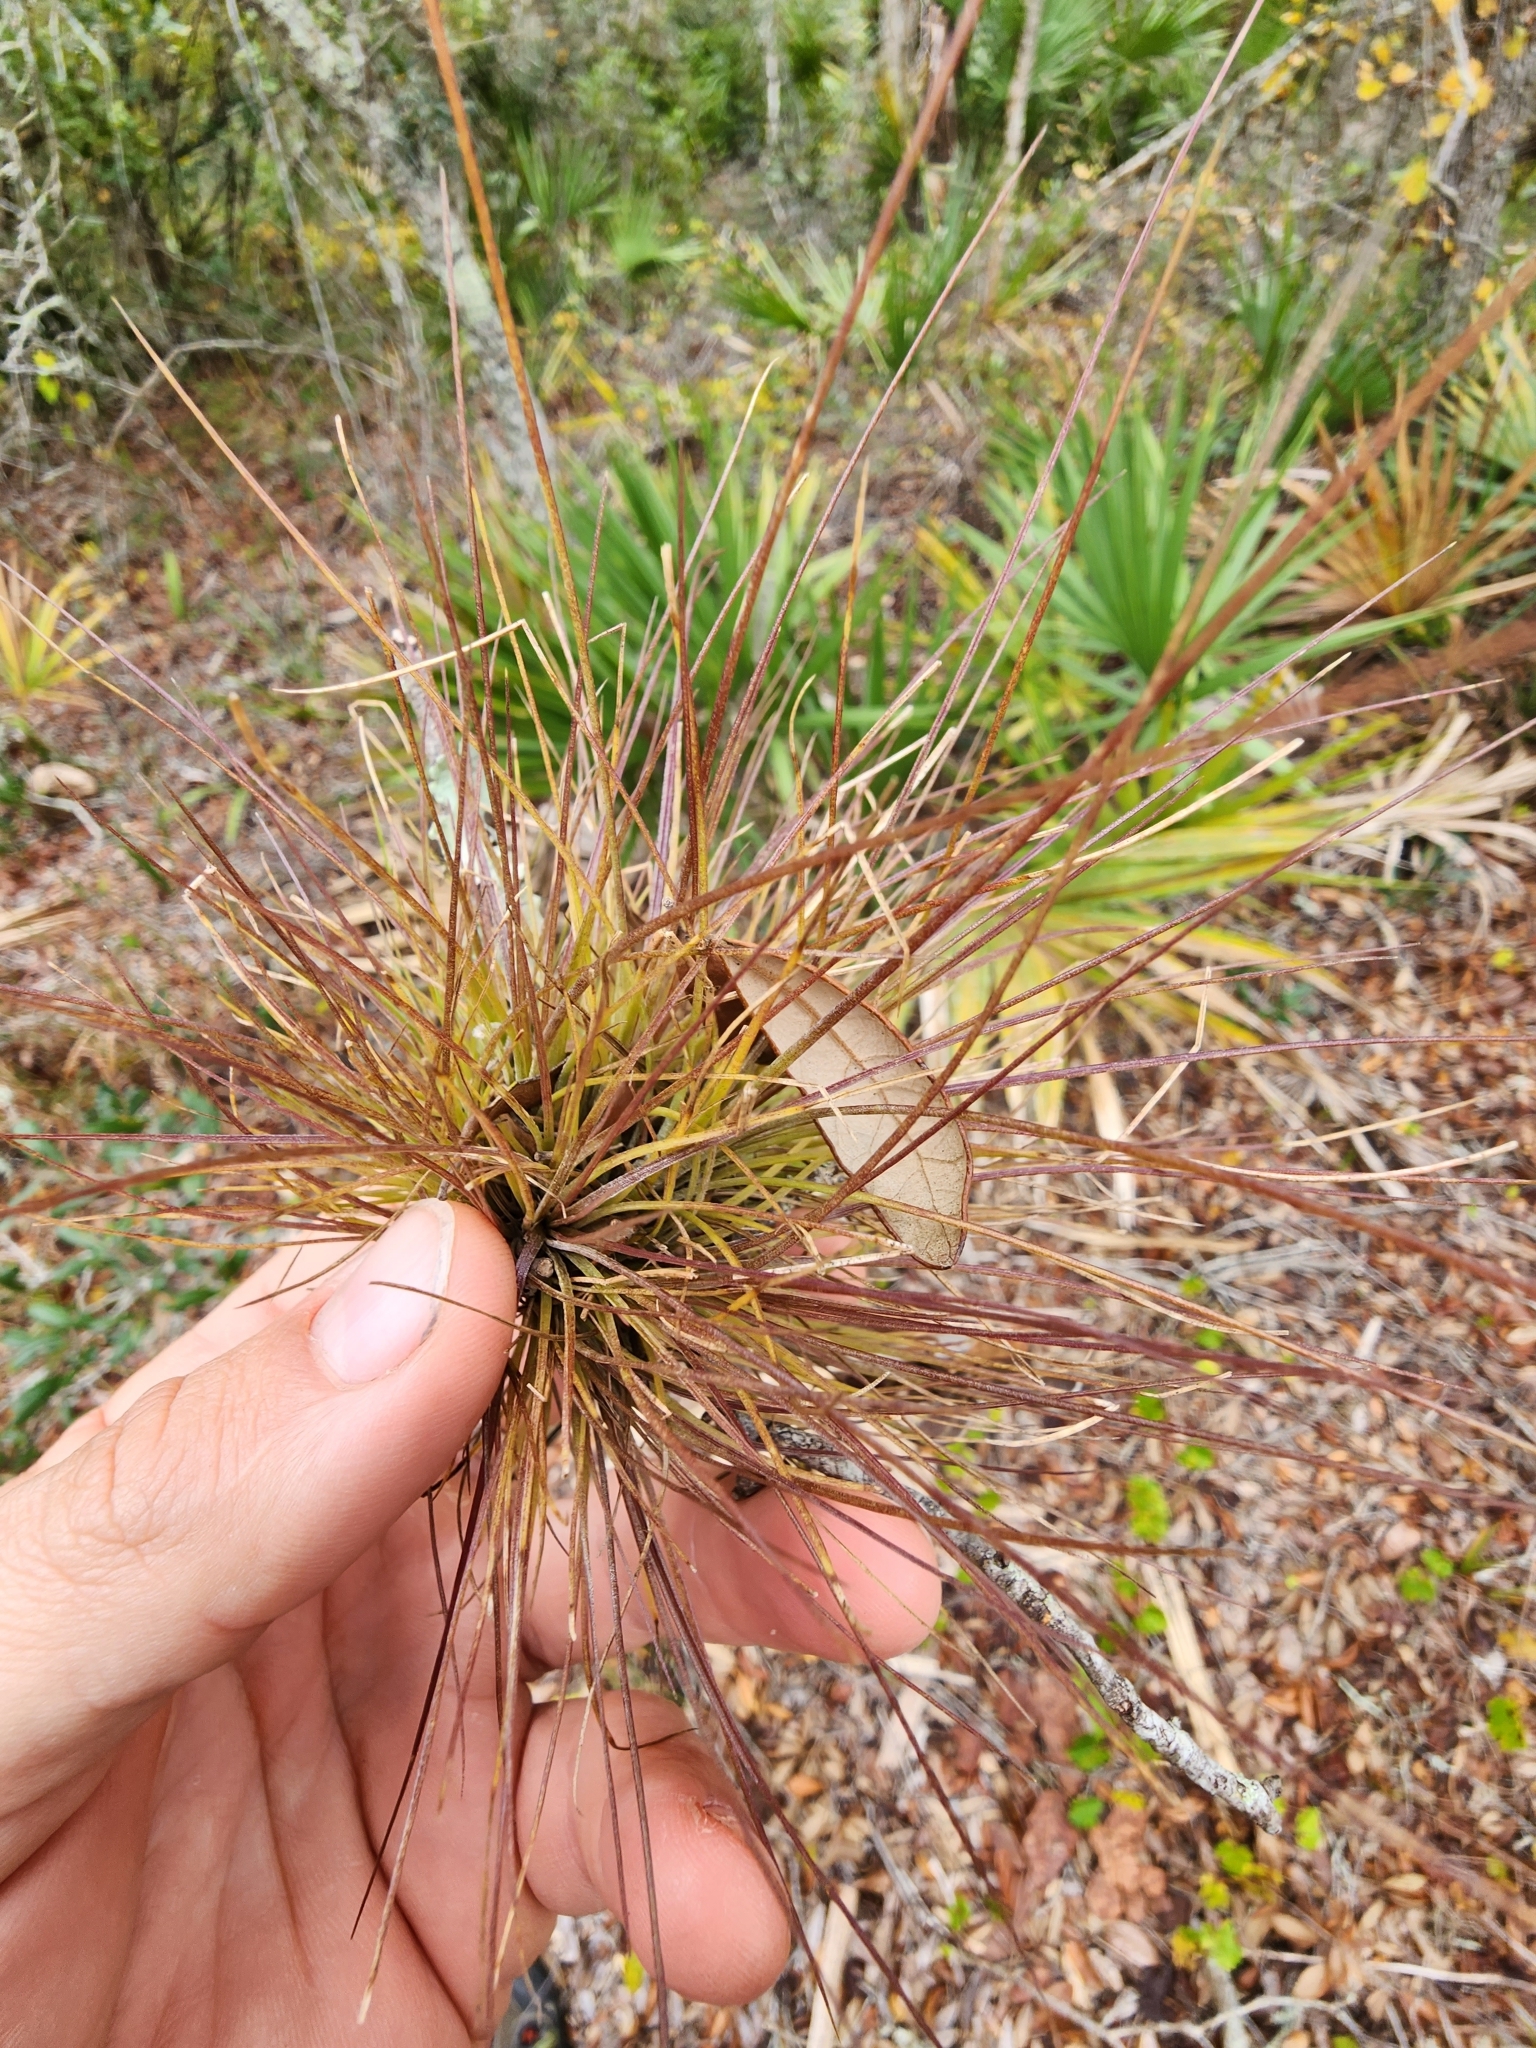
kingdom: Plantae
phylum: Tracheophyta
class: Liliopsida
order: Poales
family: Bromeliaceae
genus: Tillandsia
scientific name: Tillandsia setacea
